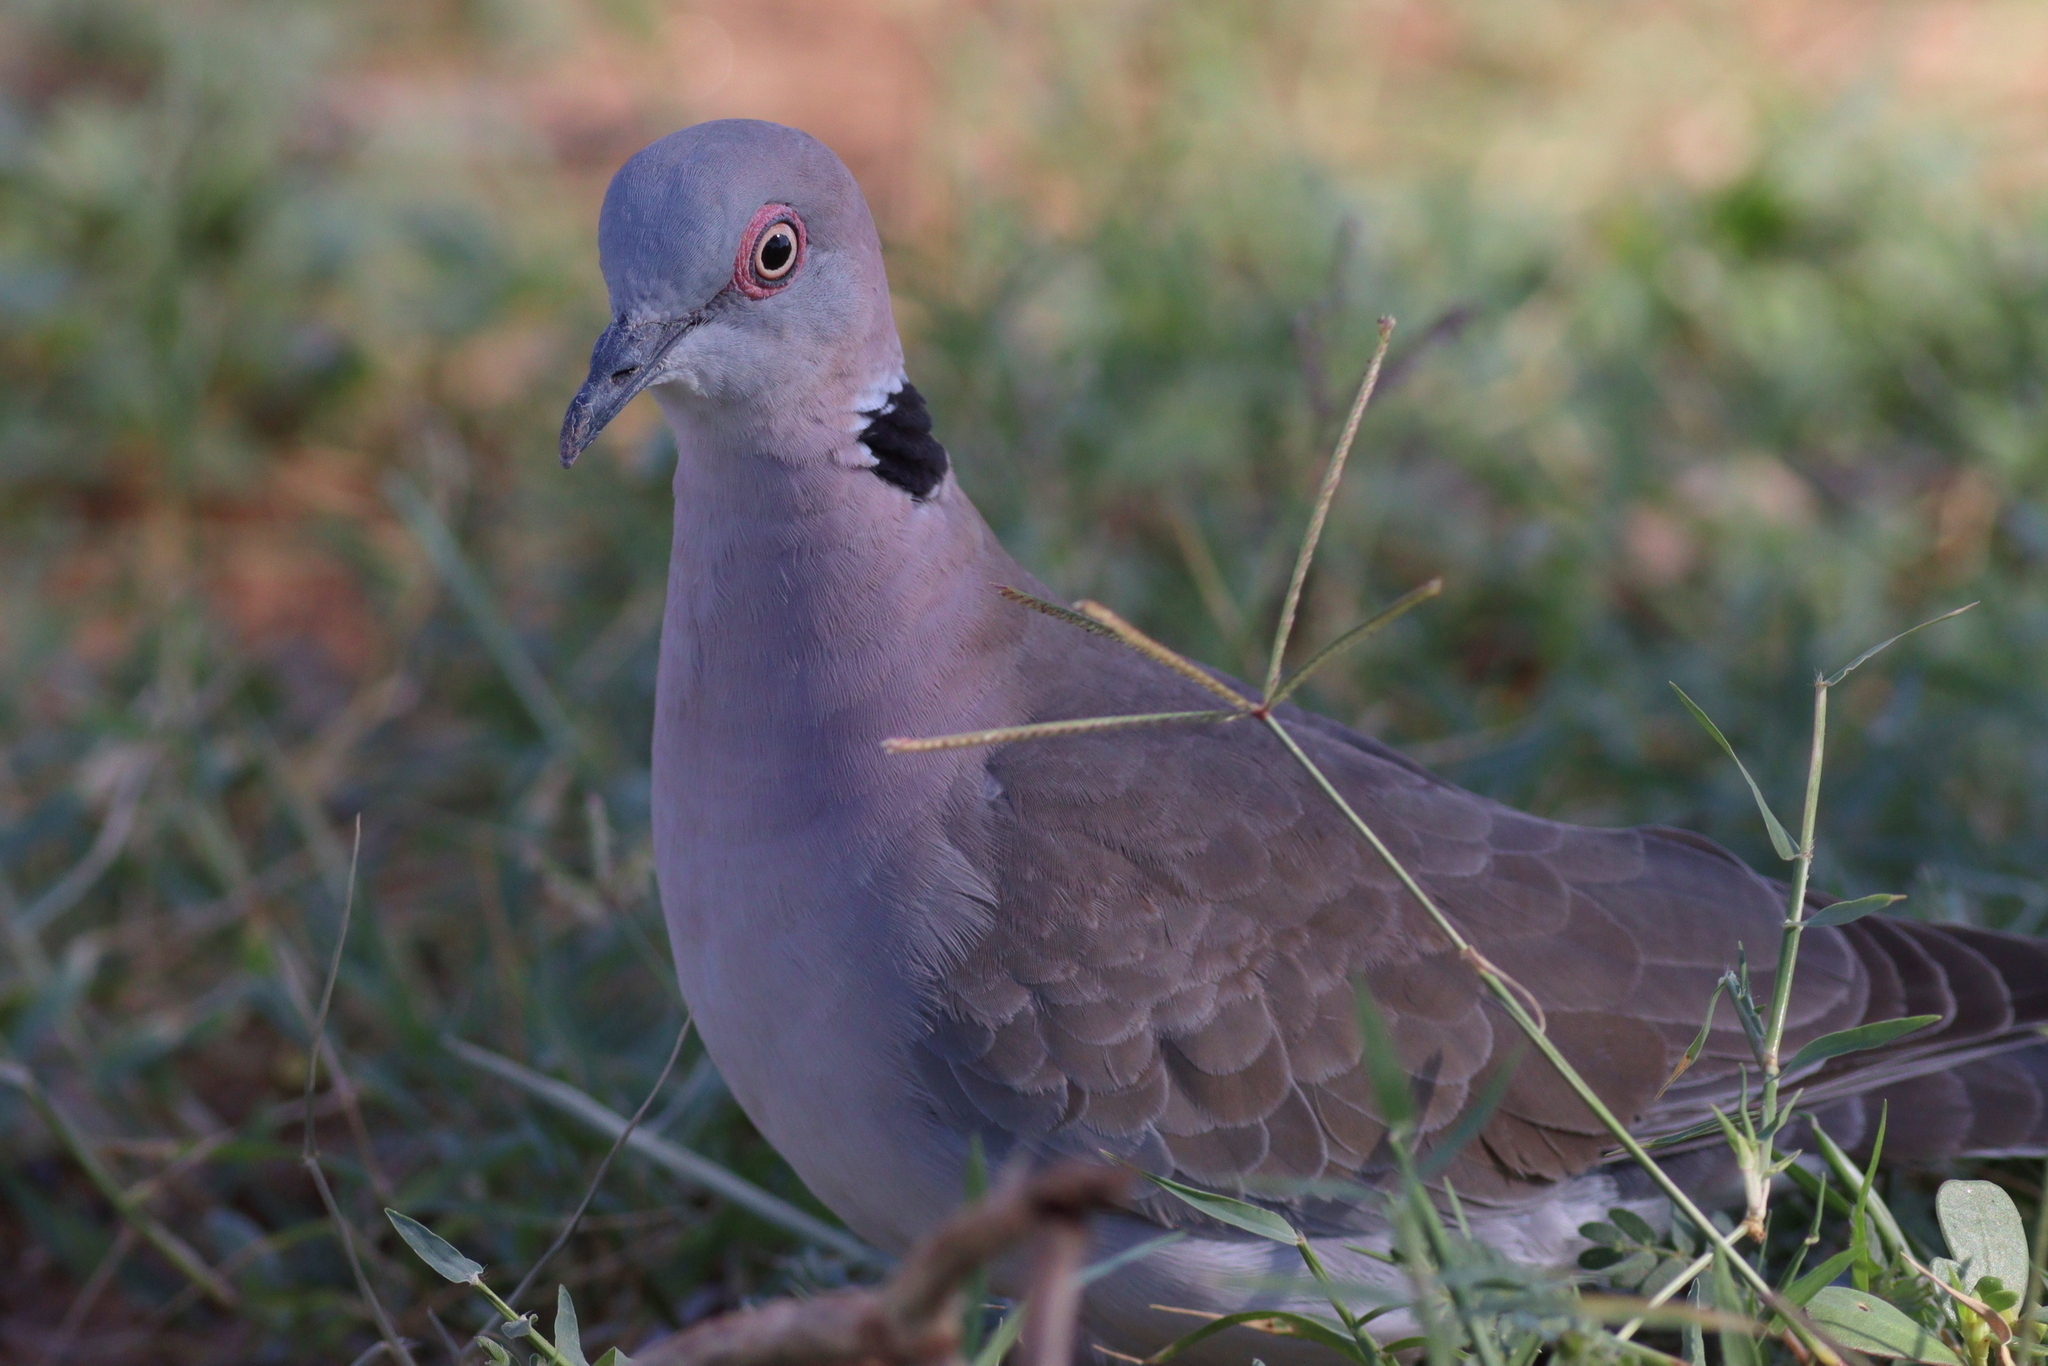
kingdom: Animalia
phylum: Chordata
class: Aves
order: Columbiformes
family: Columbidae
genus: Streptopelia
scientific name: Streptopelia decipiens
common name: Mourning collared dove
